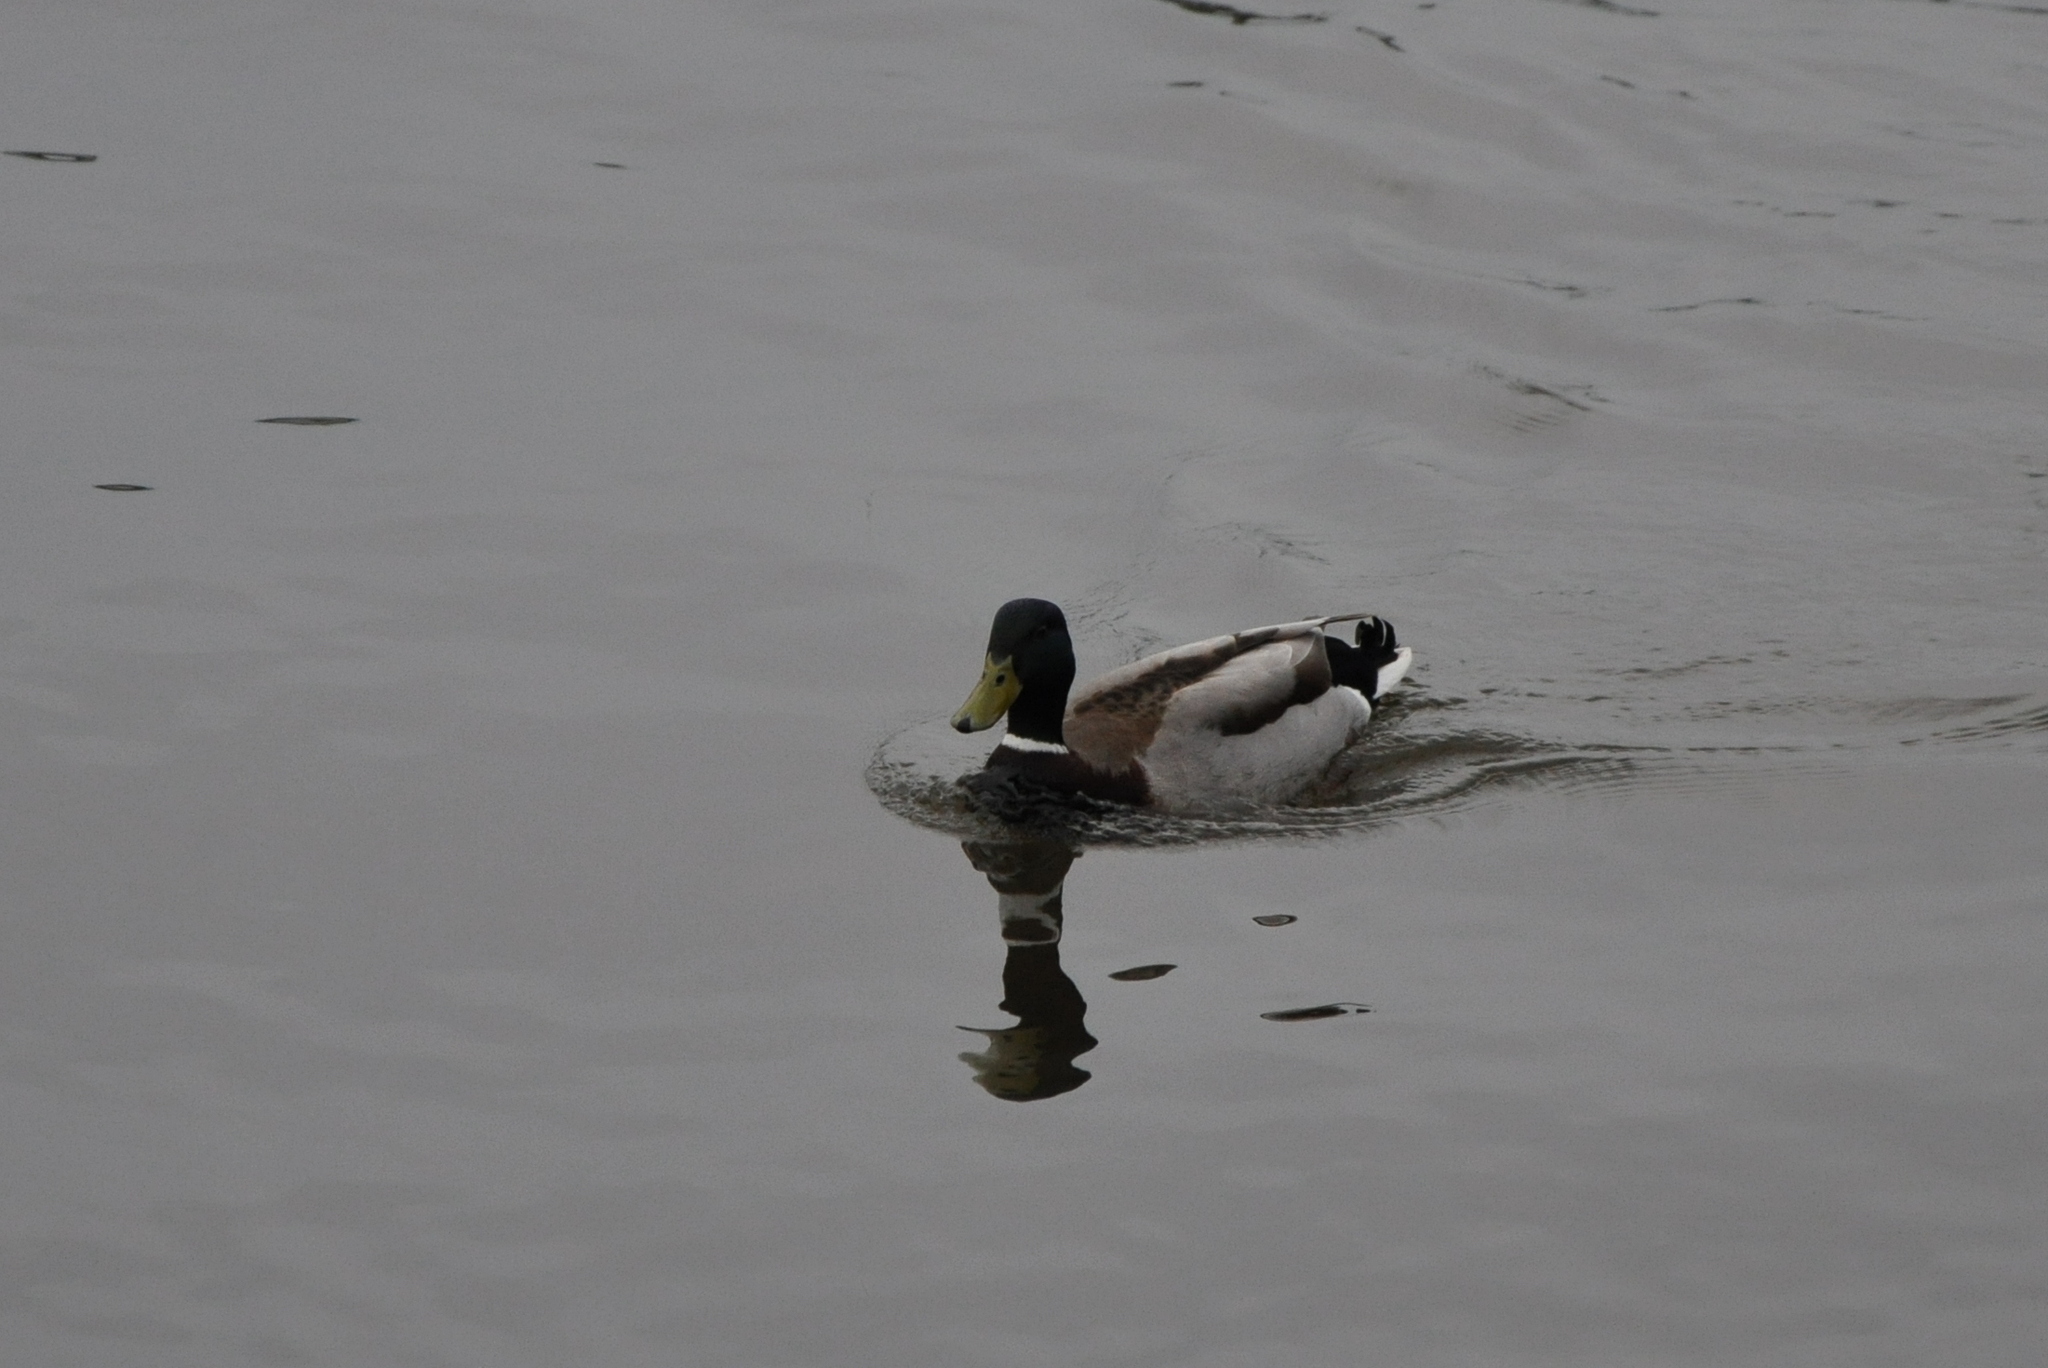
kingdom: Animalia
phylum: Chordata
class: Aves
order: Anseriformes
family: Anatidae
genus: Anas
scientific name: Anas platyrhynchos
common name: Mallard
